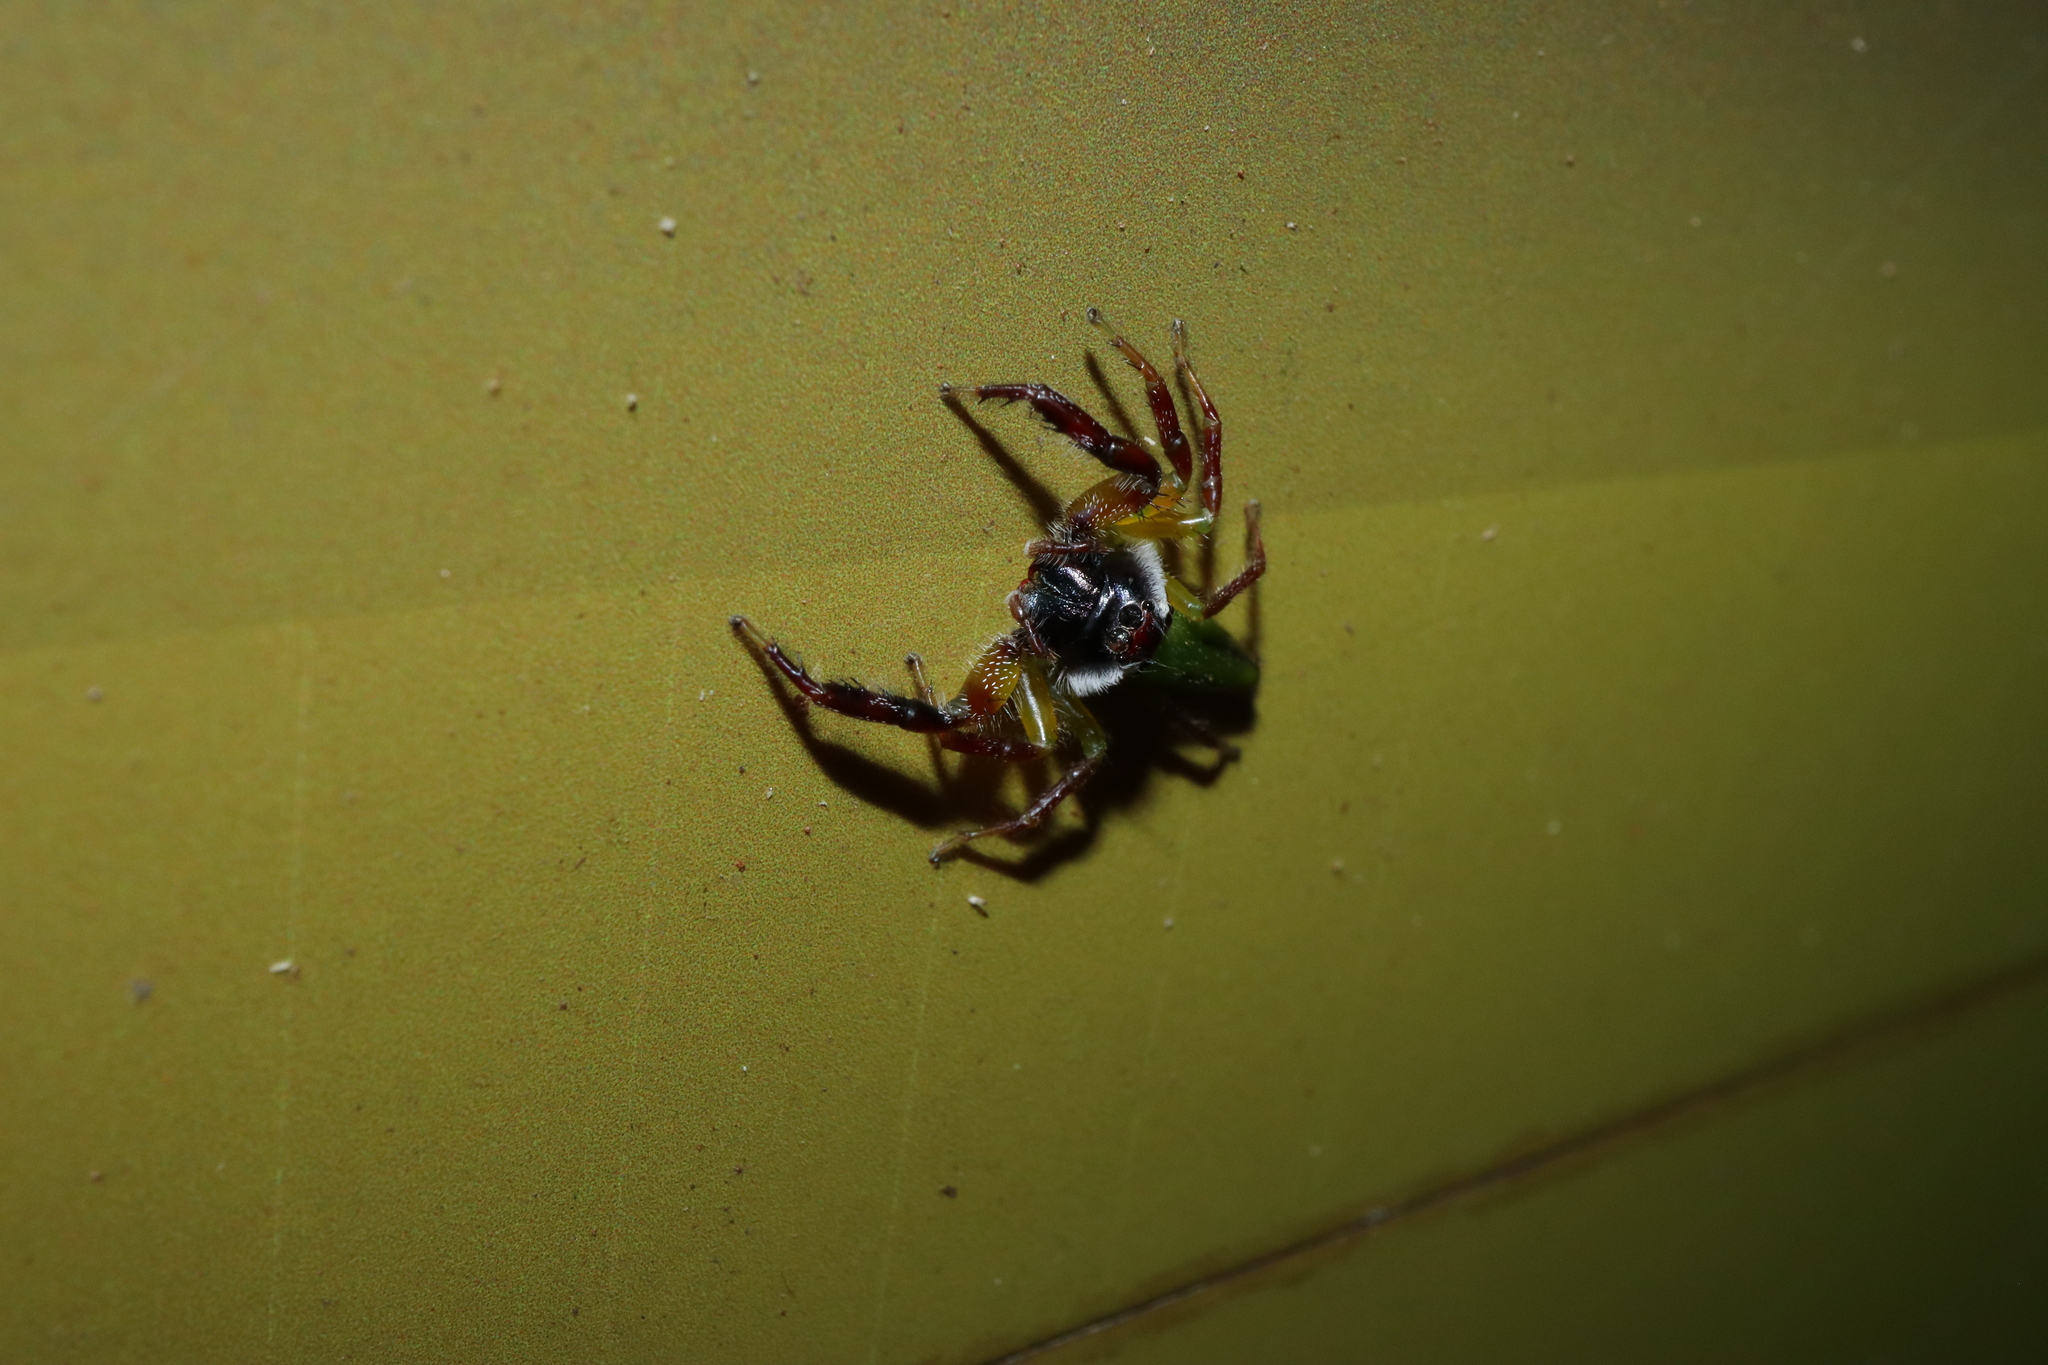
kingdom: Animalia
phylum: Arthropoda
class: Arachnida
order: Araneae
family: Salticidae
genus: Mopsus
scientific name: Mopsus mormon
